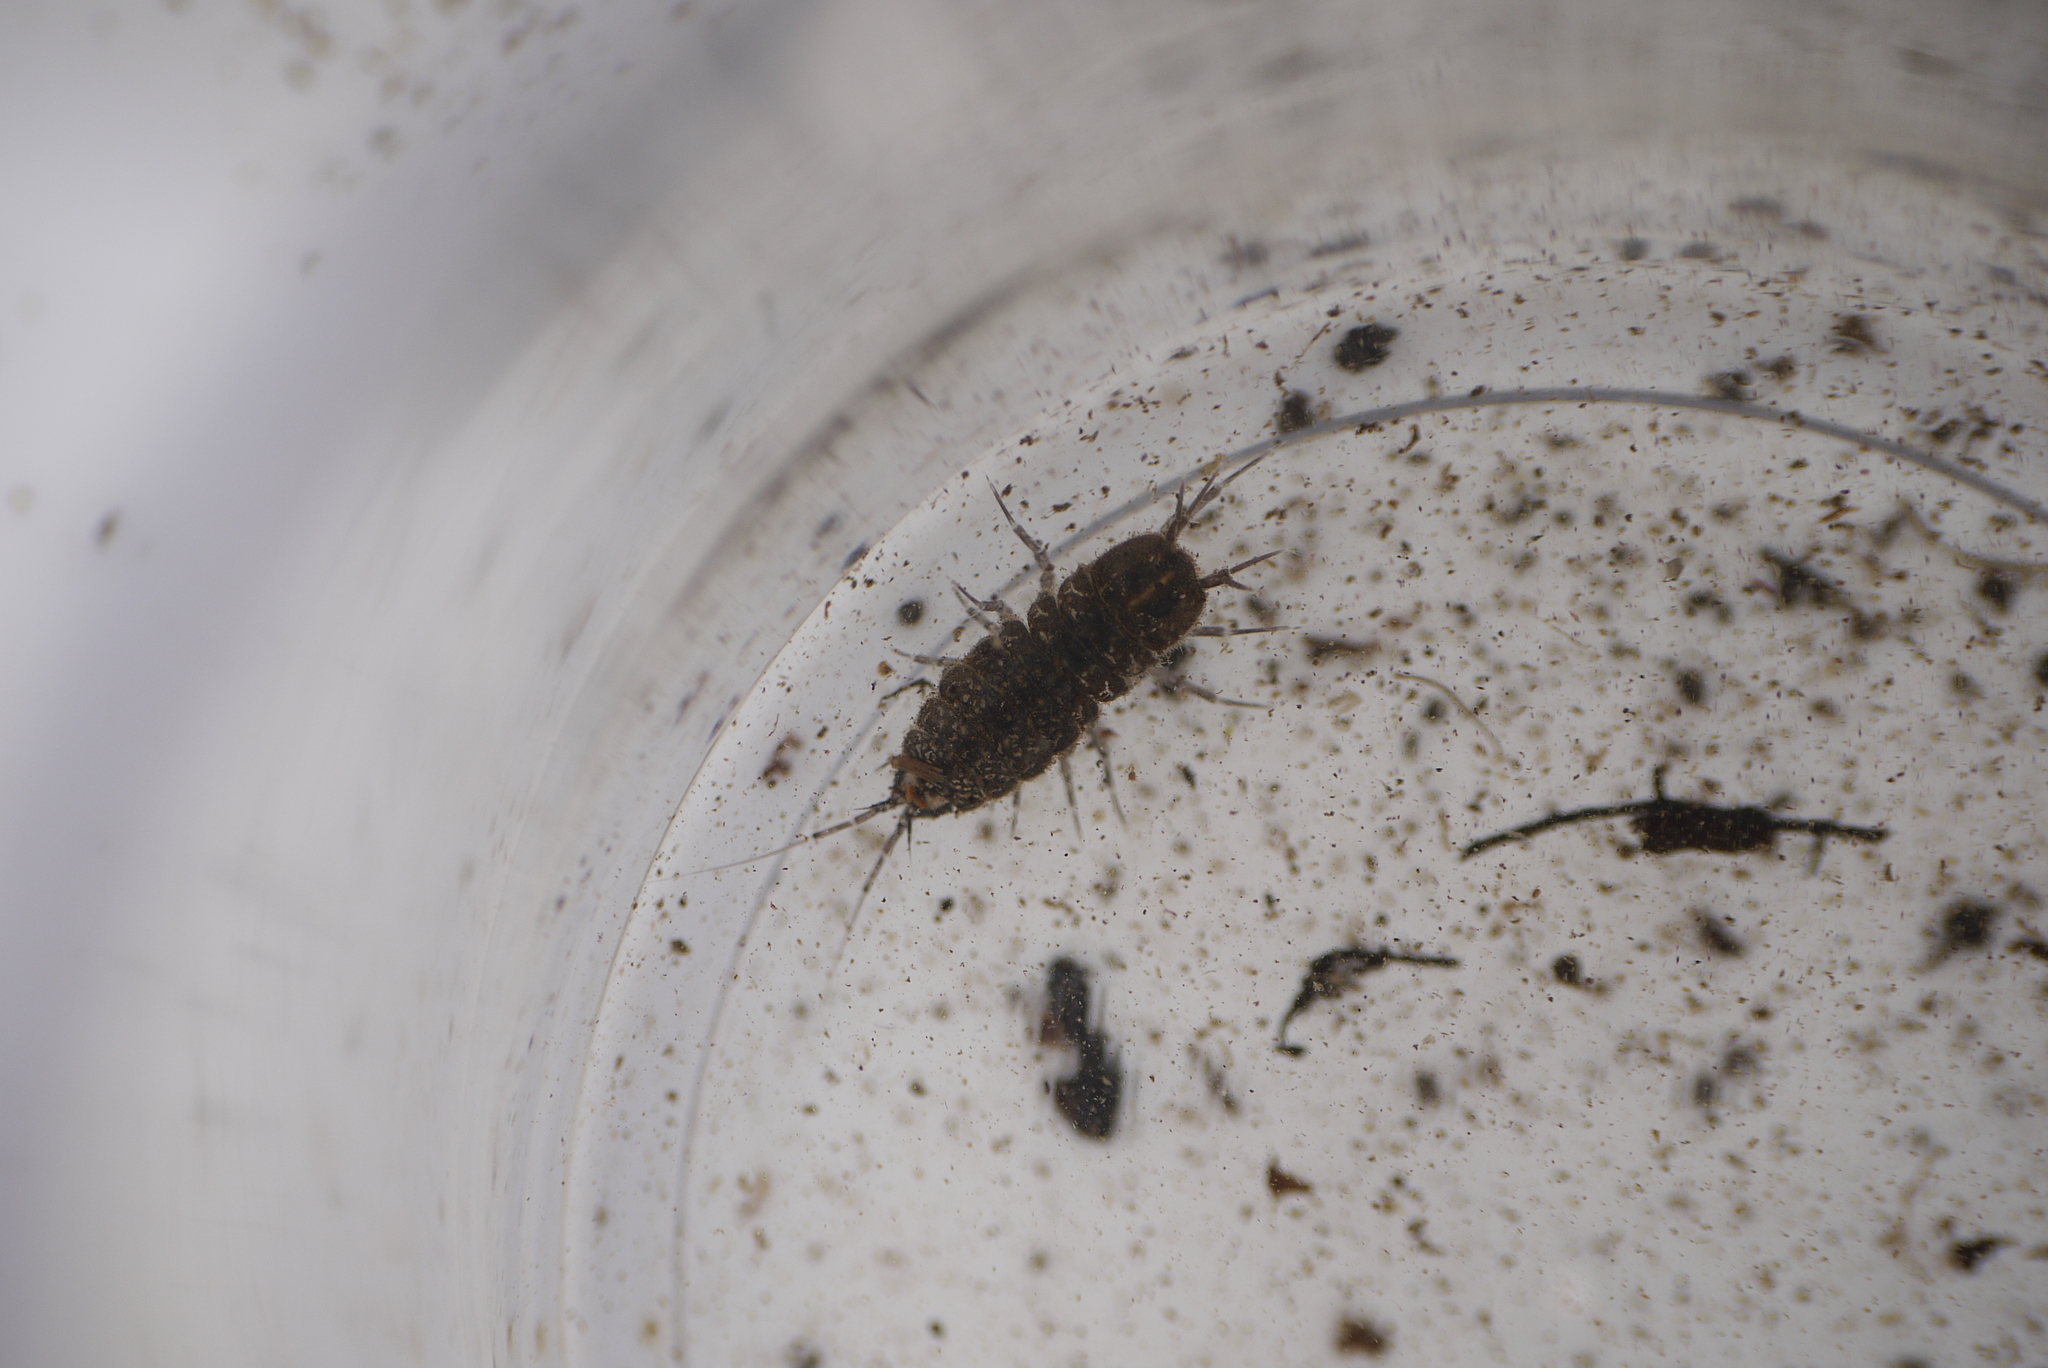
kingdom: Animalia
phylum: Arthropoda
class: Malacostraca
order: Isopoda
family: Asellidae
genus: Asellus
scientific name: Asellus aquaticus
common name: Water hog lice/slaters
